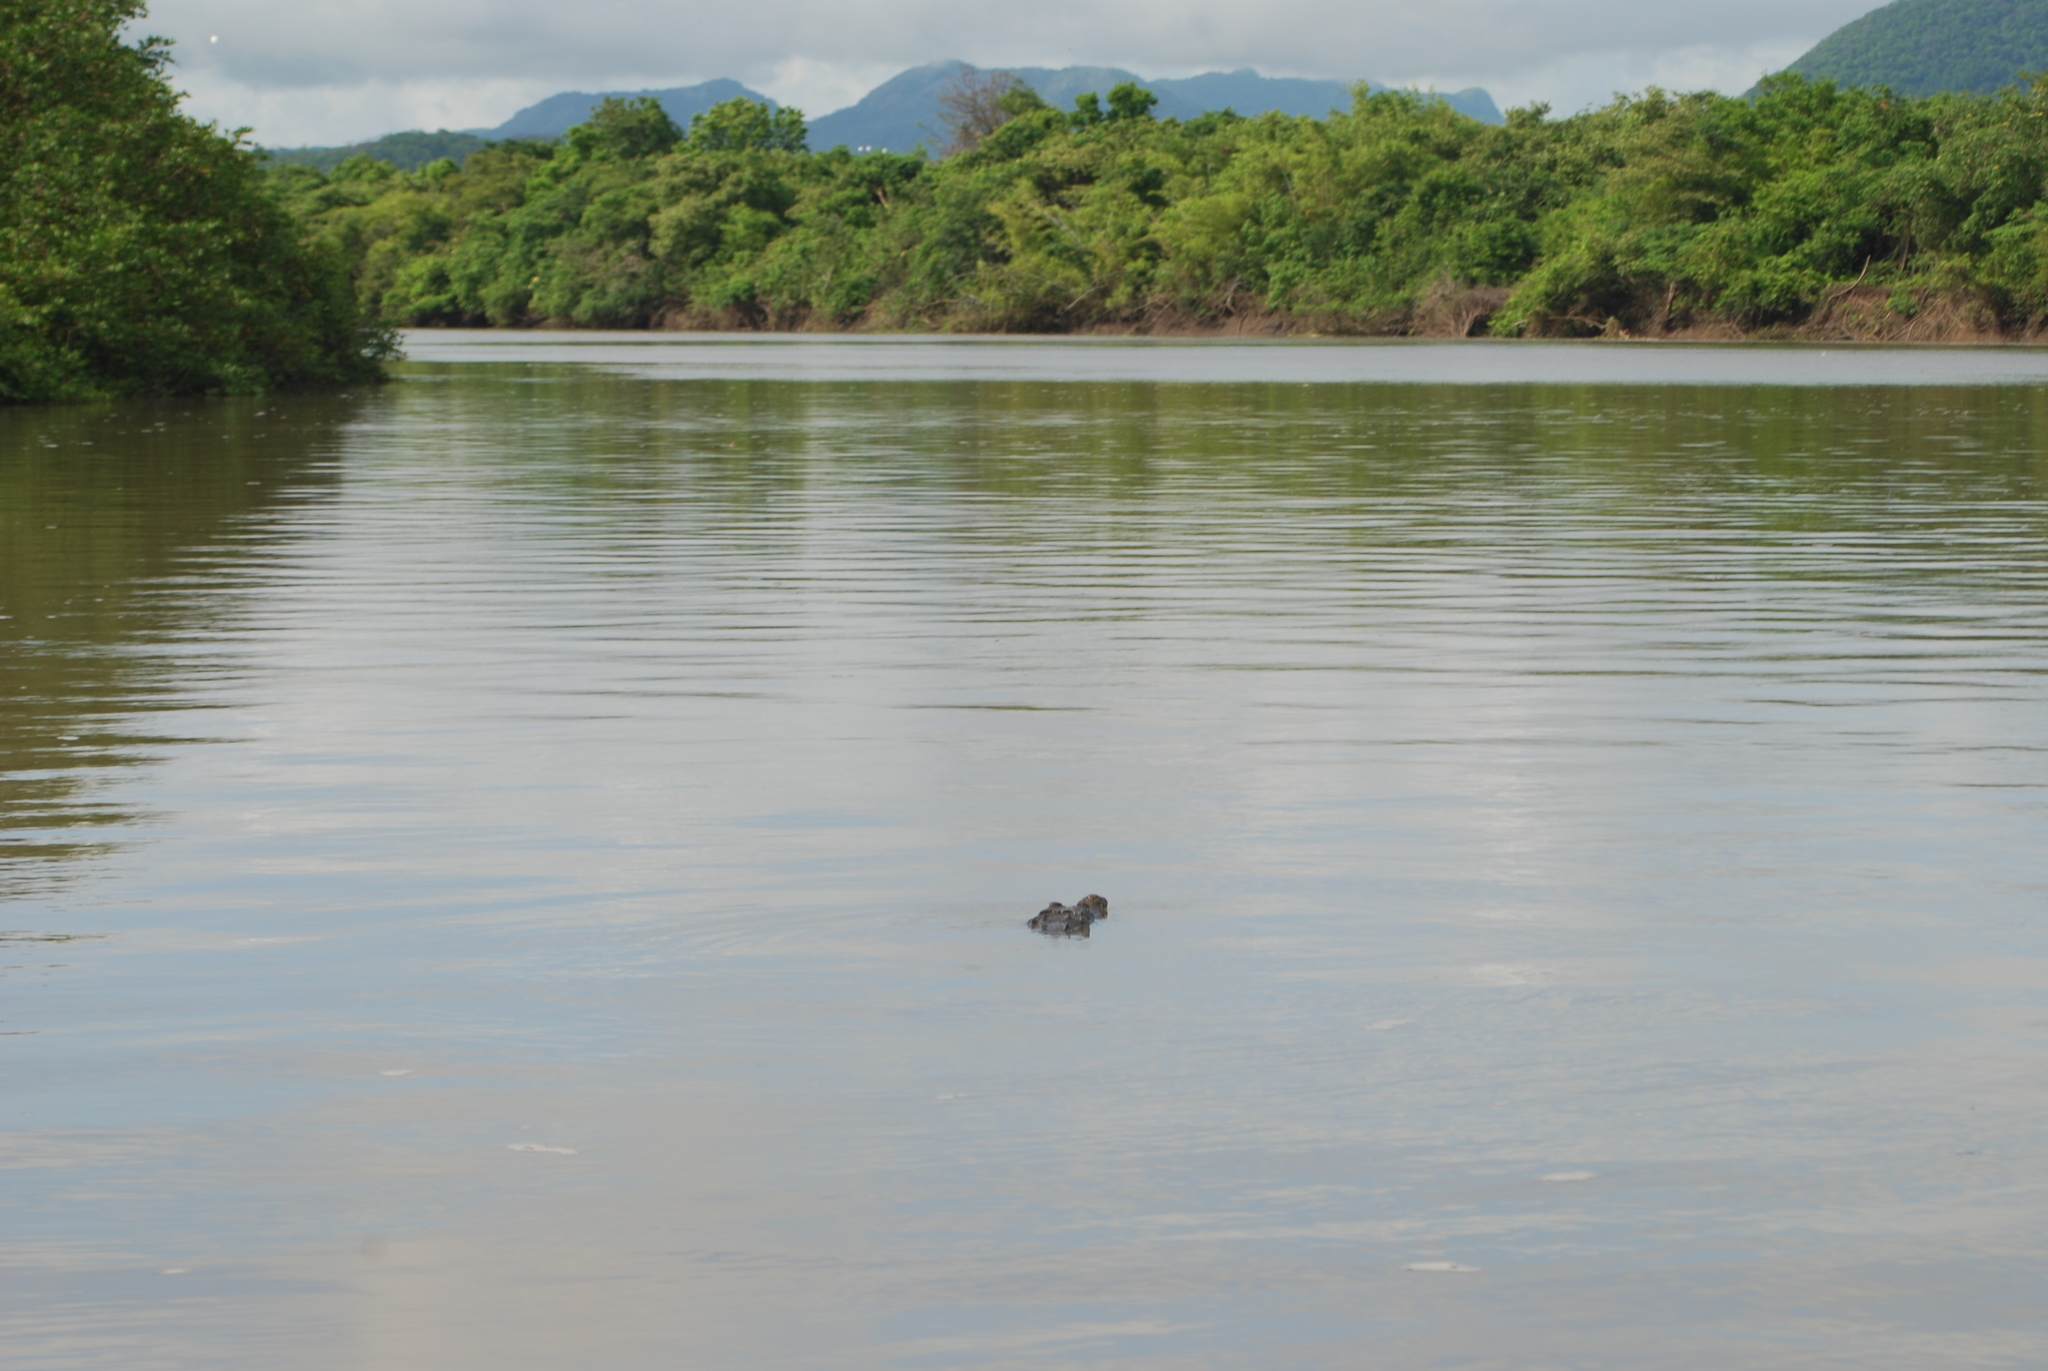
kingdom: Animalia
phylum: Chordata
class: Crocodylia
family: Crocodylidae
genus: Crocodylus
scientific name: Crocodylus acutus
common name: American crocodile
